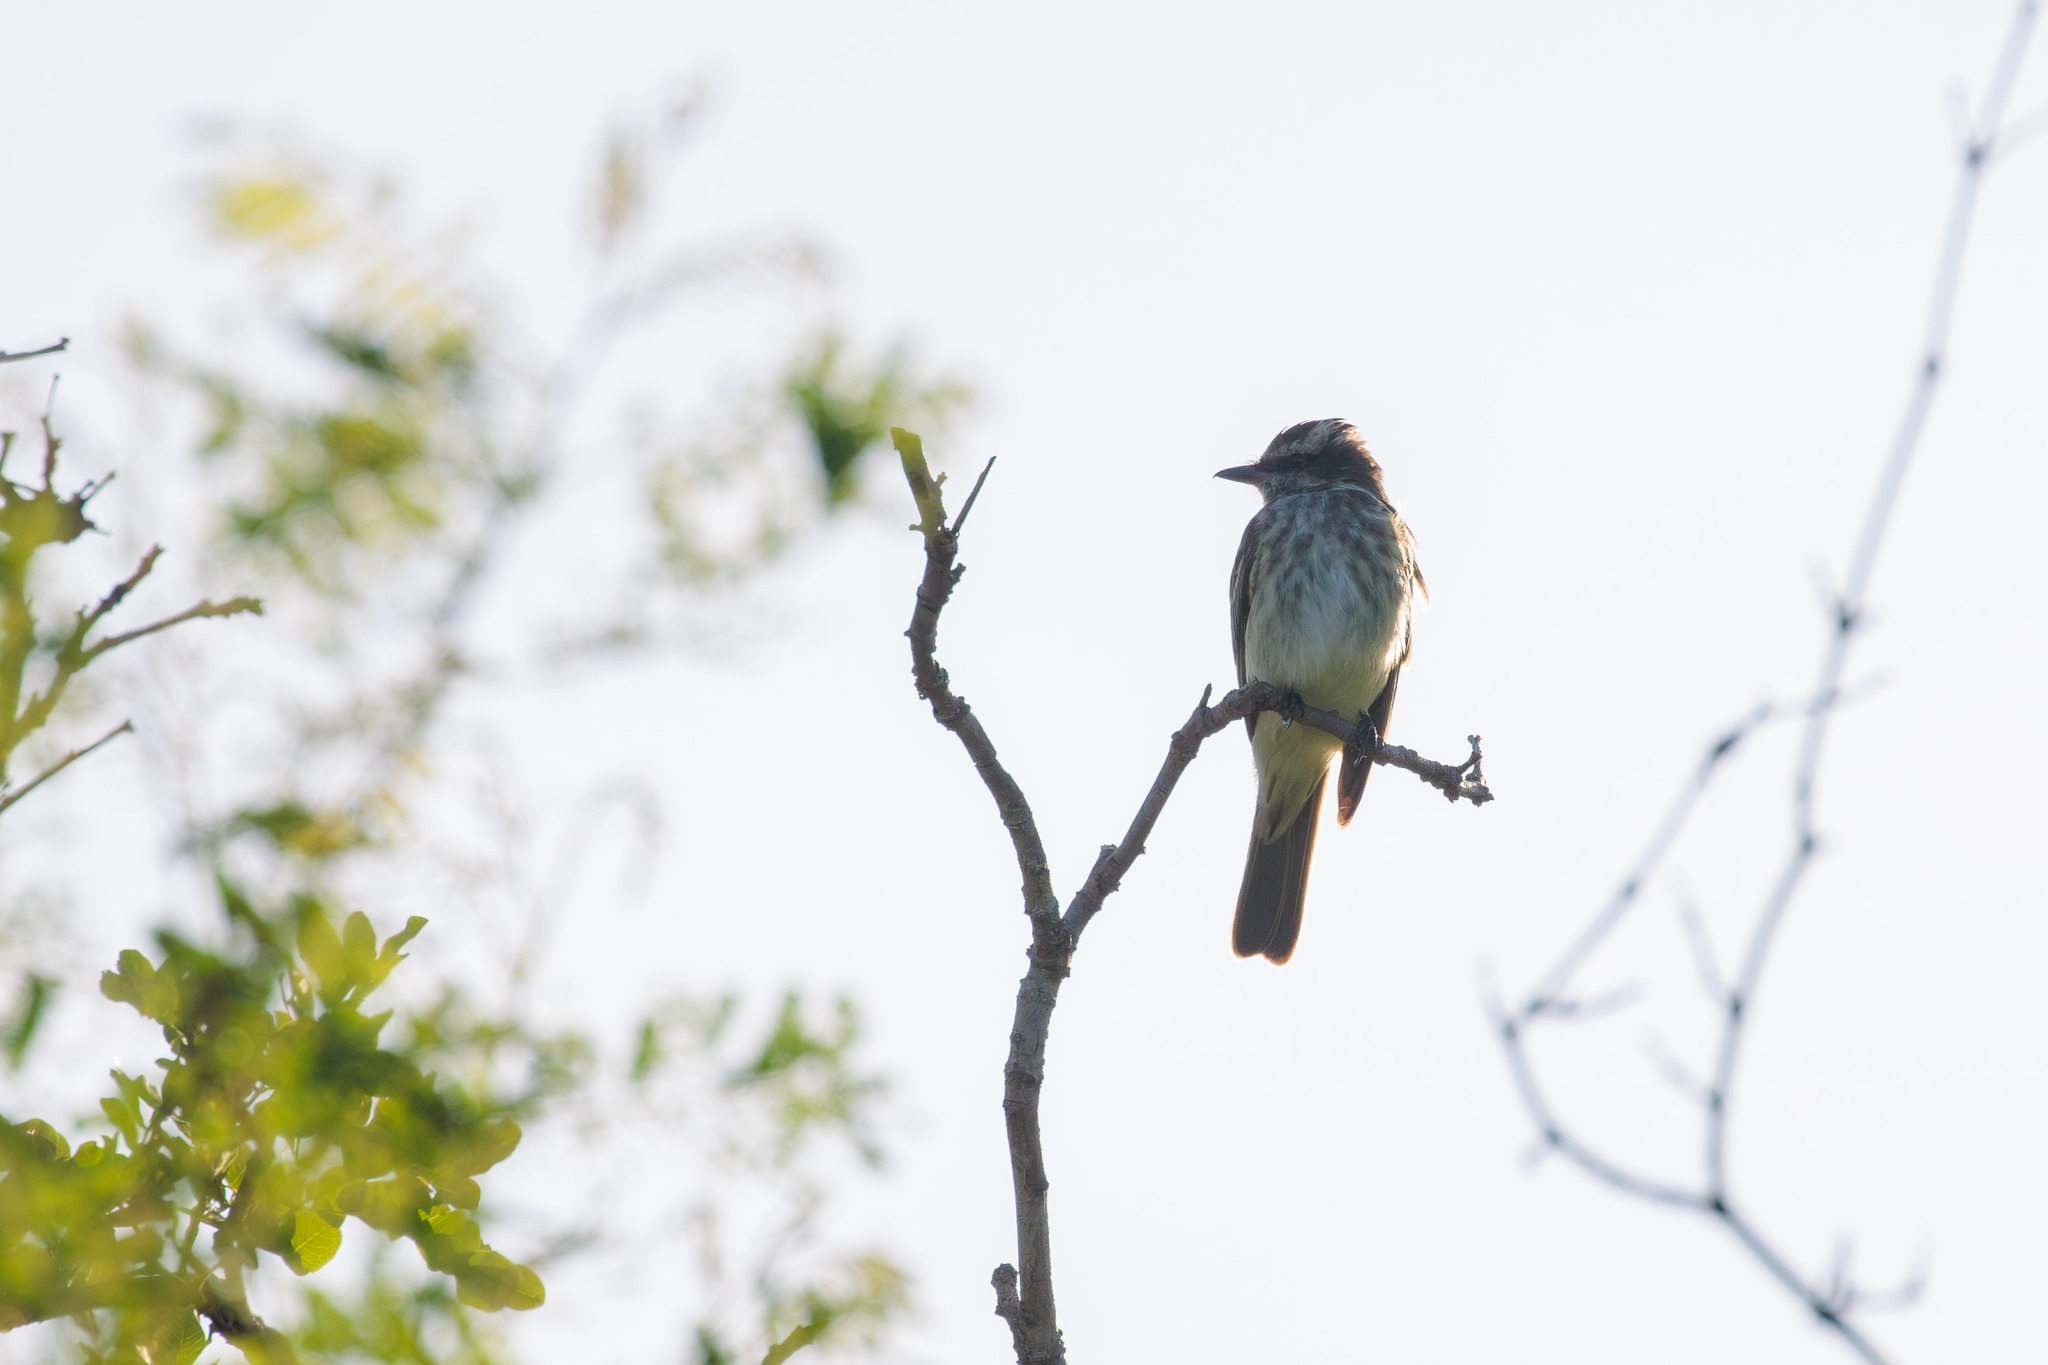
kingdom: Animalia
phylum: Chordata
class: Aves
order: Passeriformes
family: Tyrannidae
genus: Empidonomus
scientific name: Empidonomus varius
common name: Variegated flycatcher
